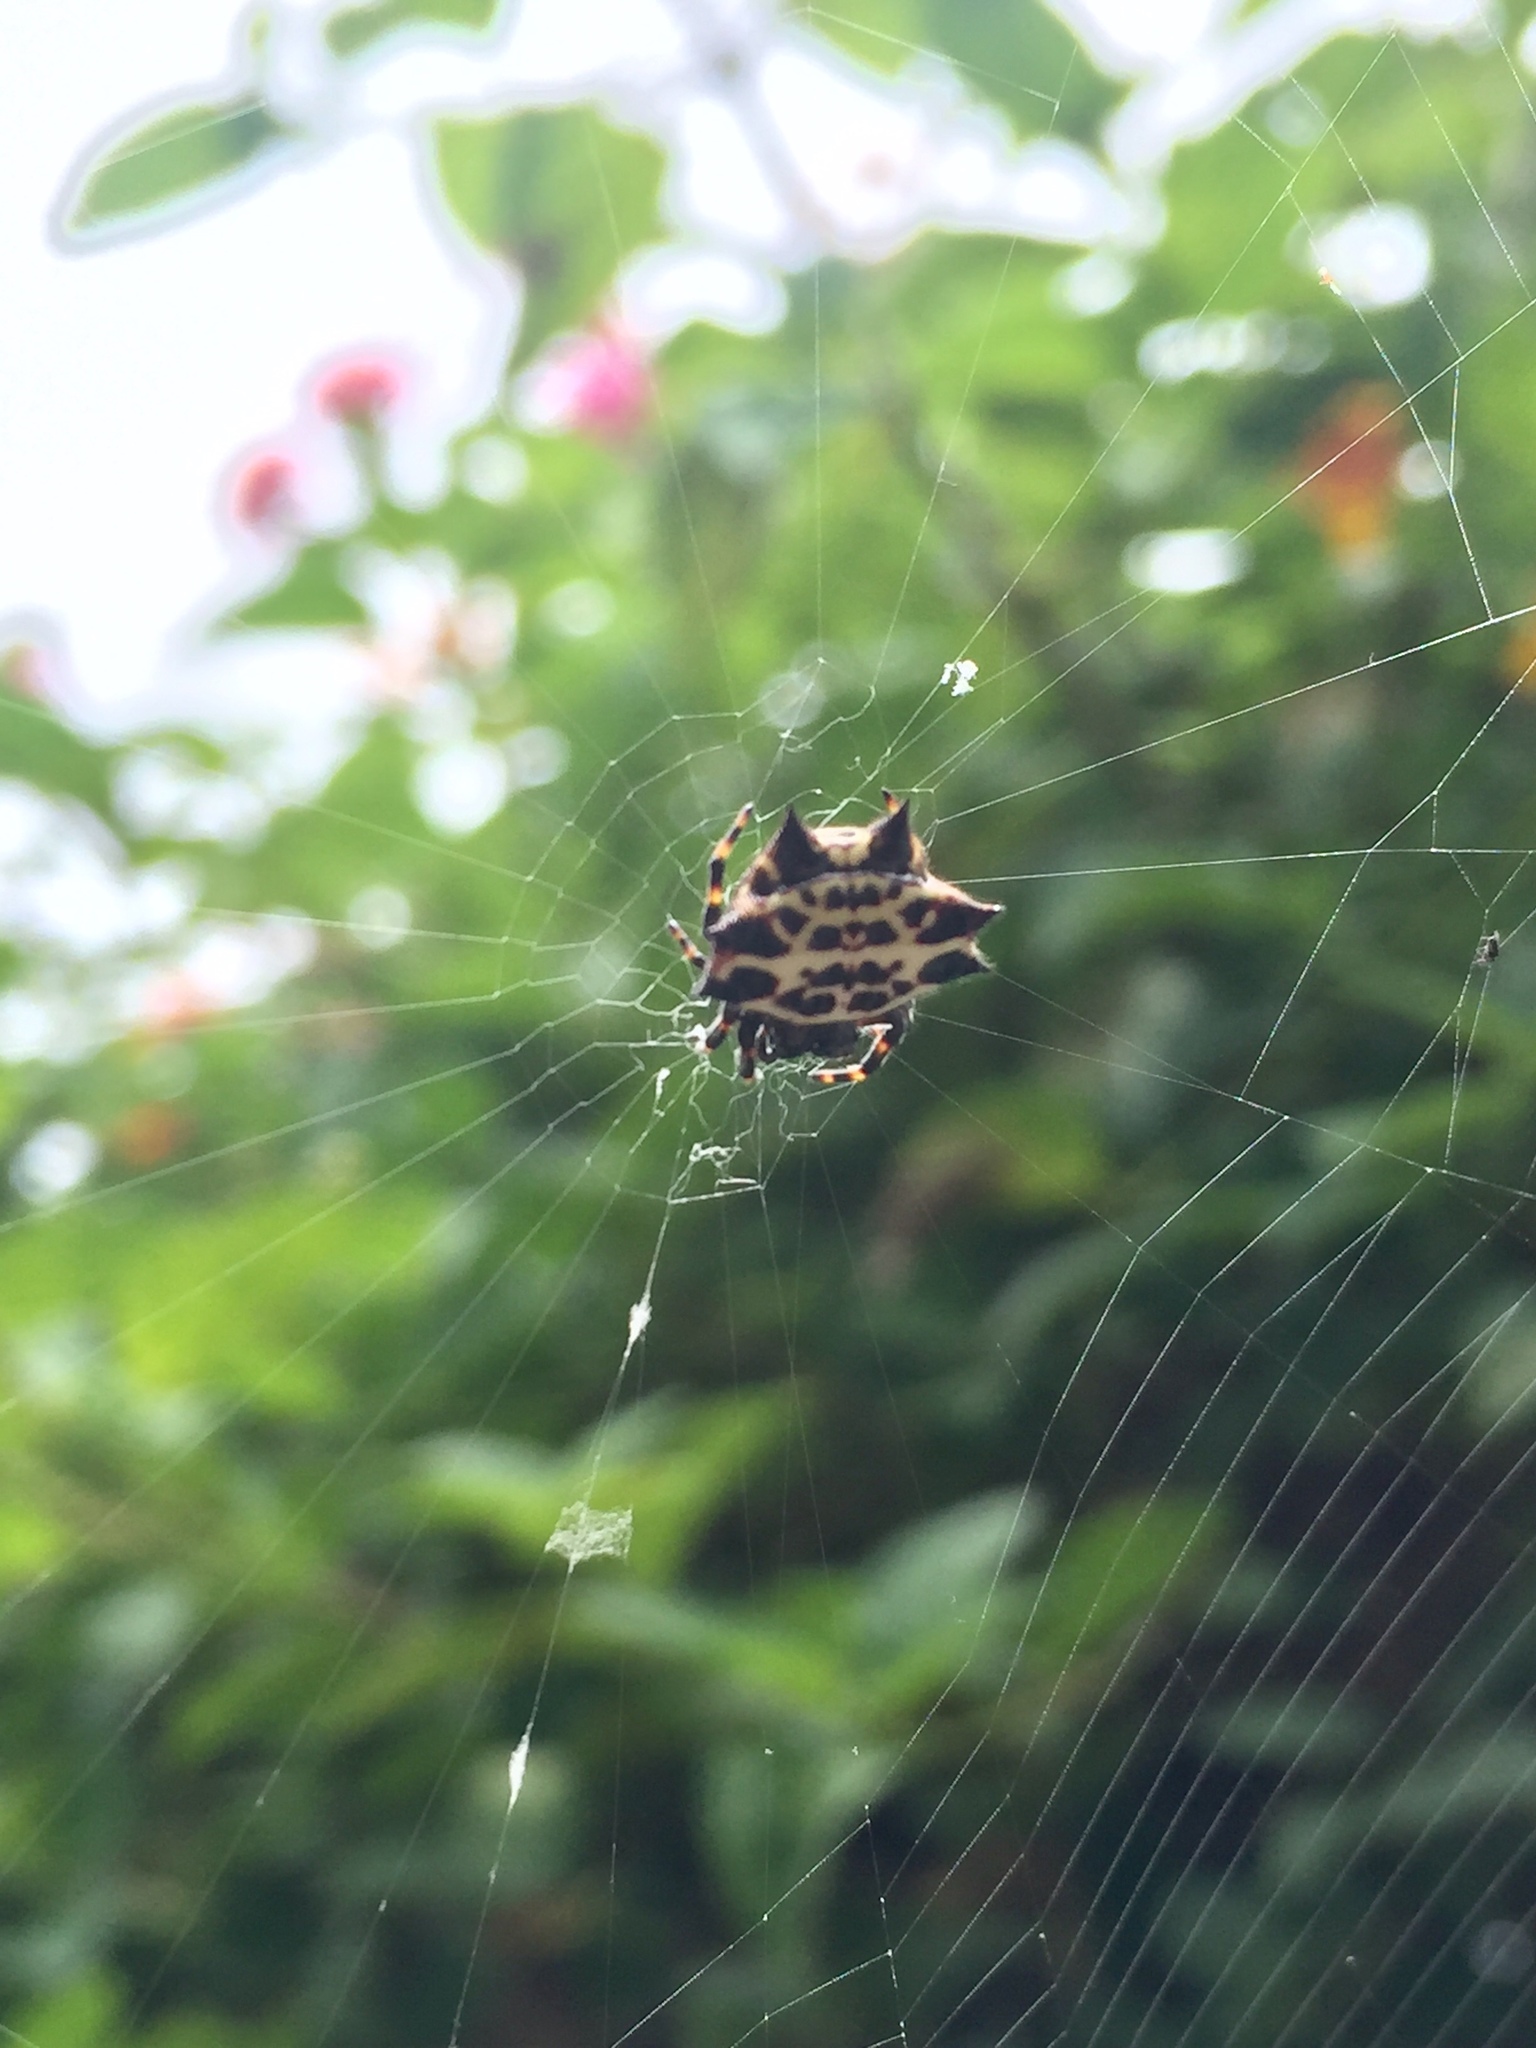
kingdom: Animalia
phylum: Arthropoda
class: Arachnida
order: Araneae
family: Araneidae
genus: Gasteracantha
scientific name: Gasteracantha cancriformis
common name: Orb weavers
